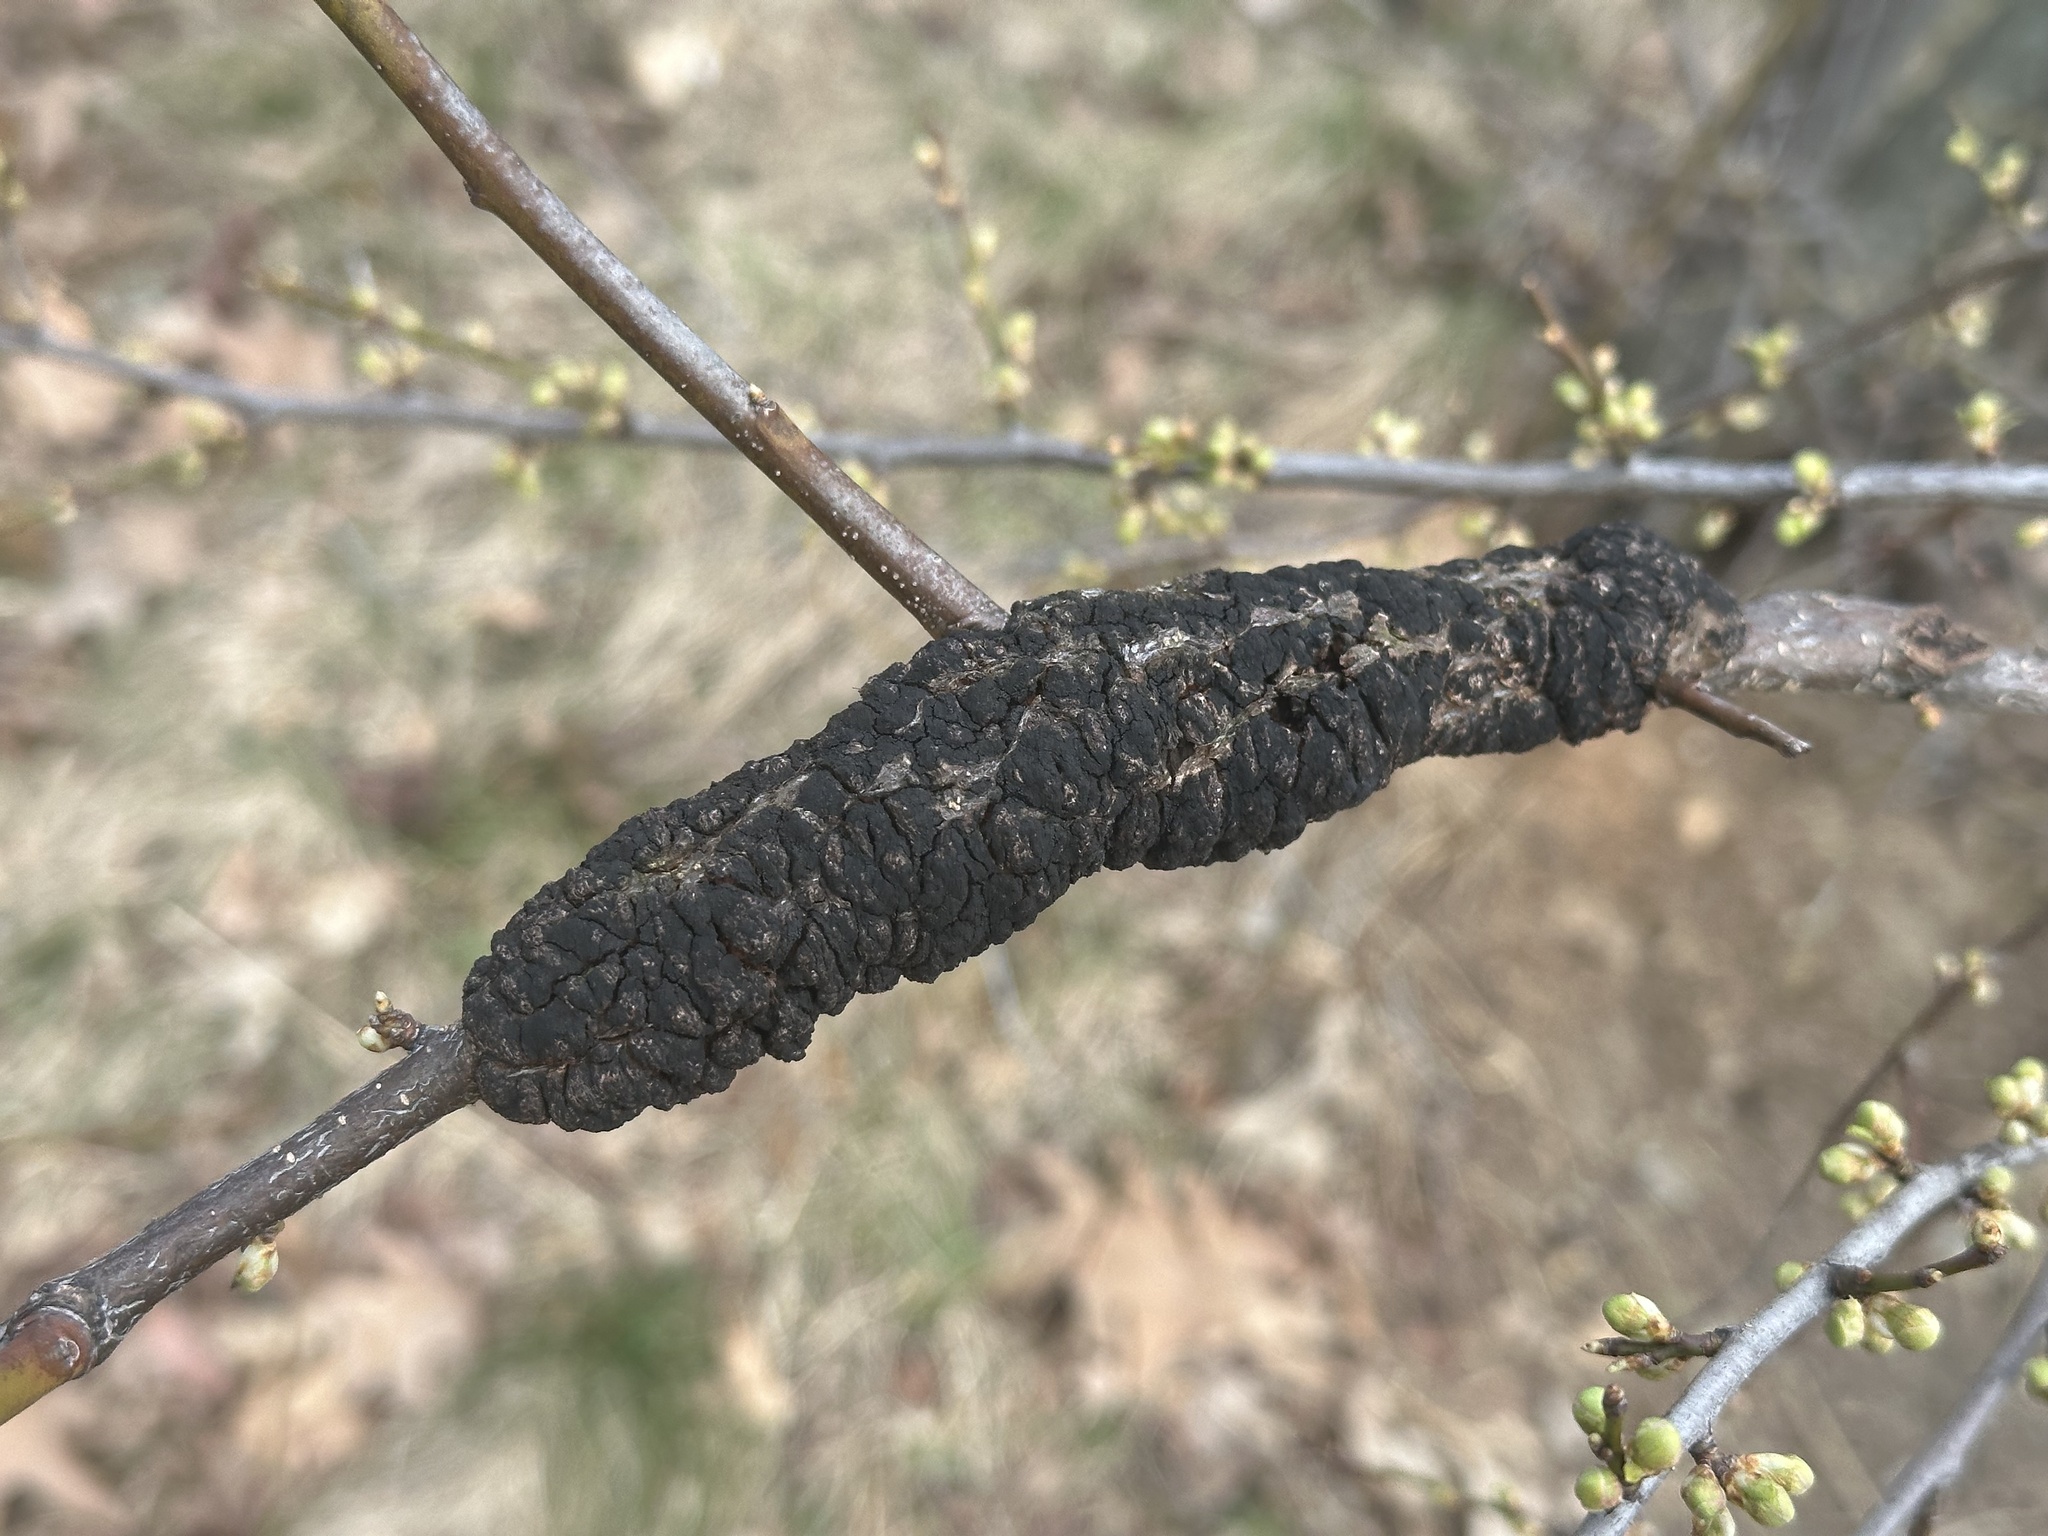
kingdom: Fungi
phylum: Ascomycota
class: Dothideomycetes
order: Venturiales
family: Venturiaceae
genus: Apiosporina
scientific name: Apiosporina morbosa
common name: Black knot
